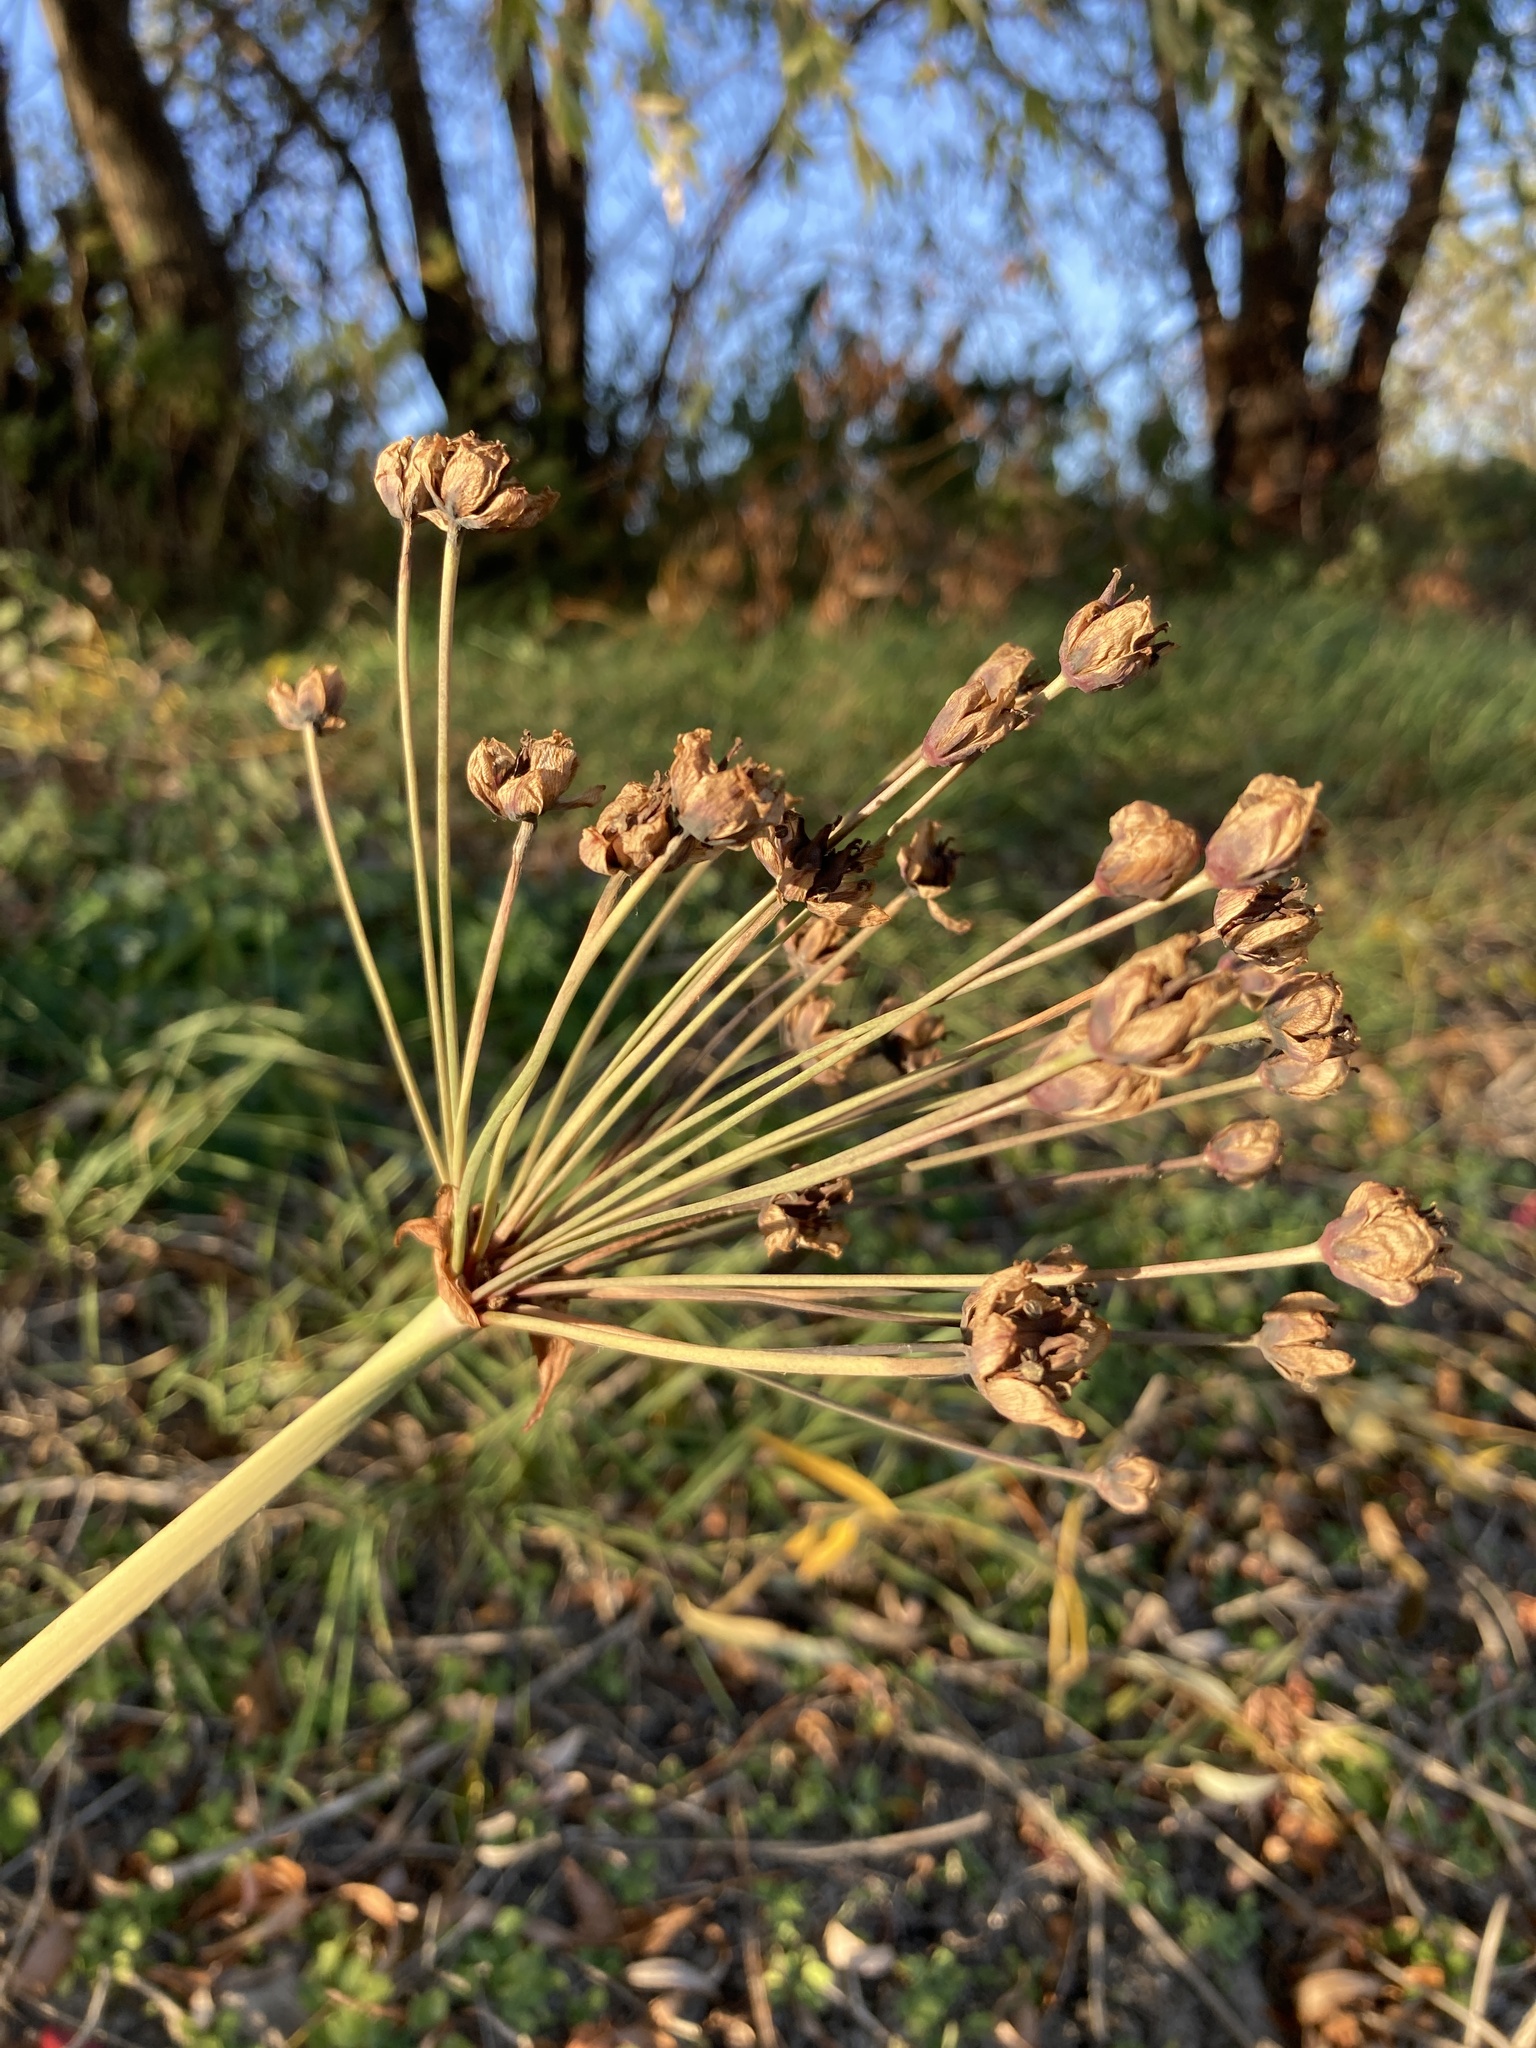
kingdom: Plantae
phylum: Tracheophyta
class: Liliopsida
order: Alismatales
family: Butomaceae
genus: Butomus
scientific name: Butomus umbellatus
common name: Flowering-rush
